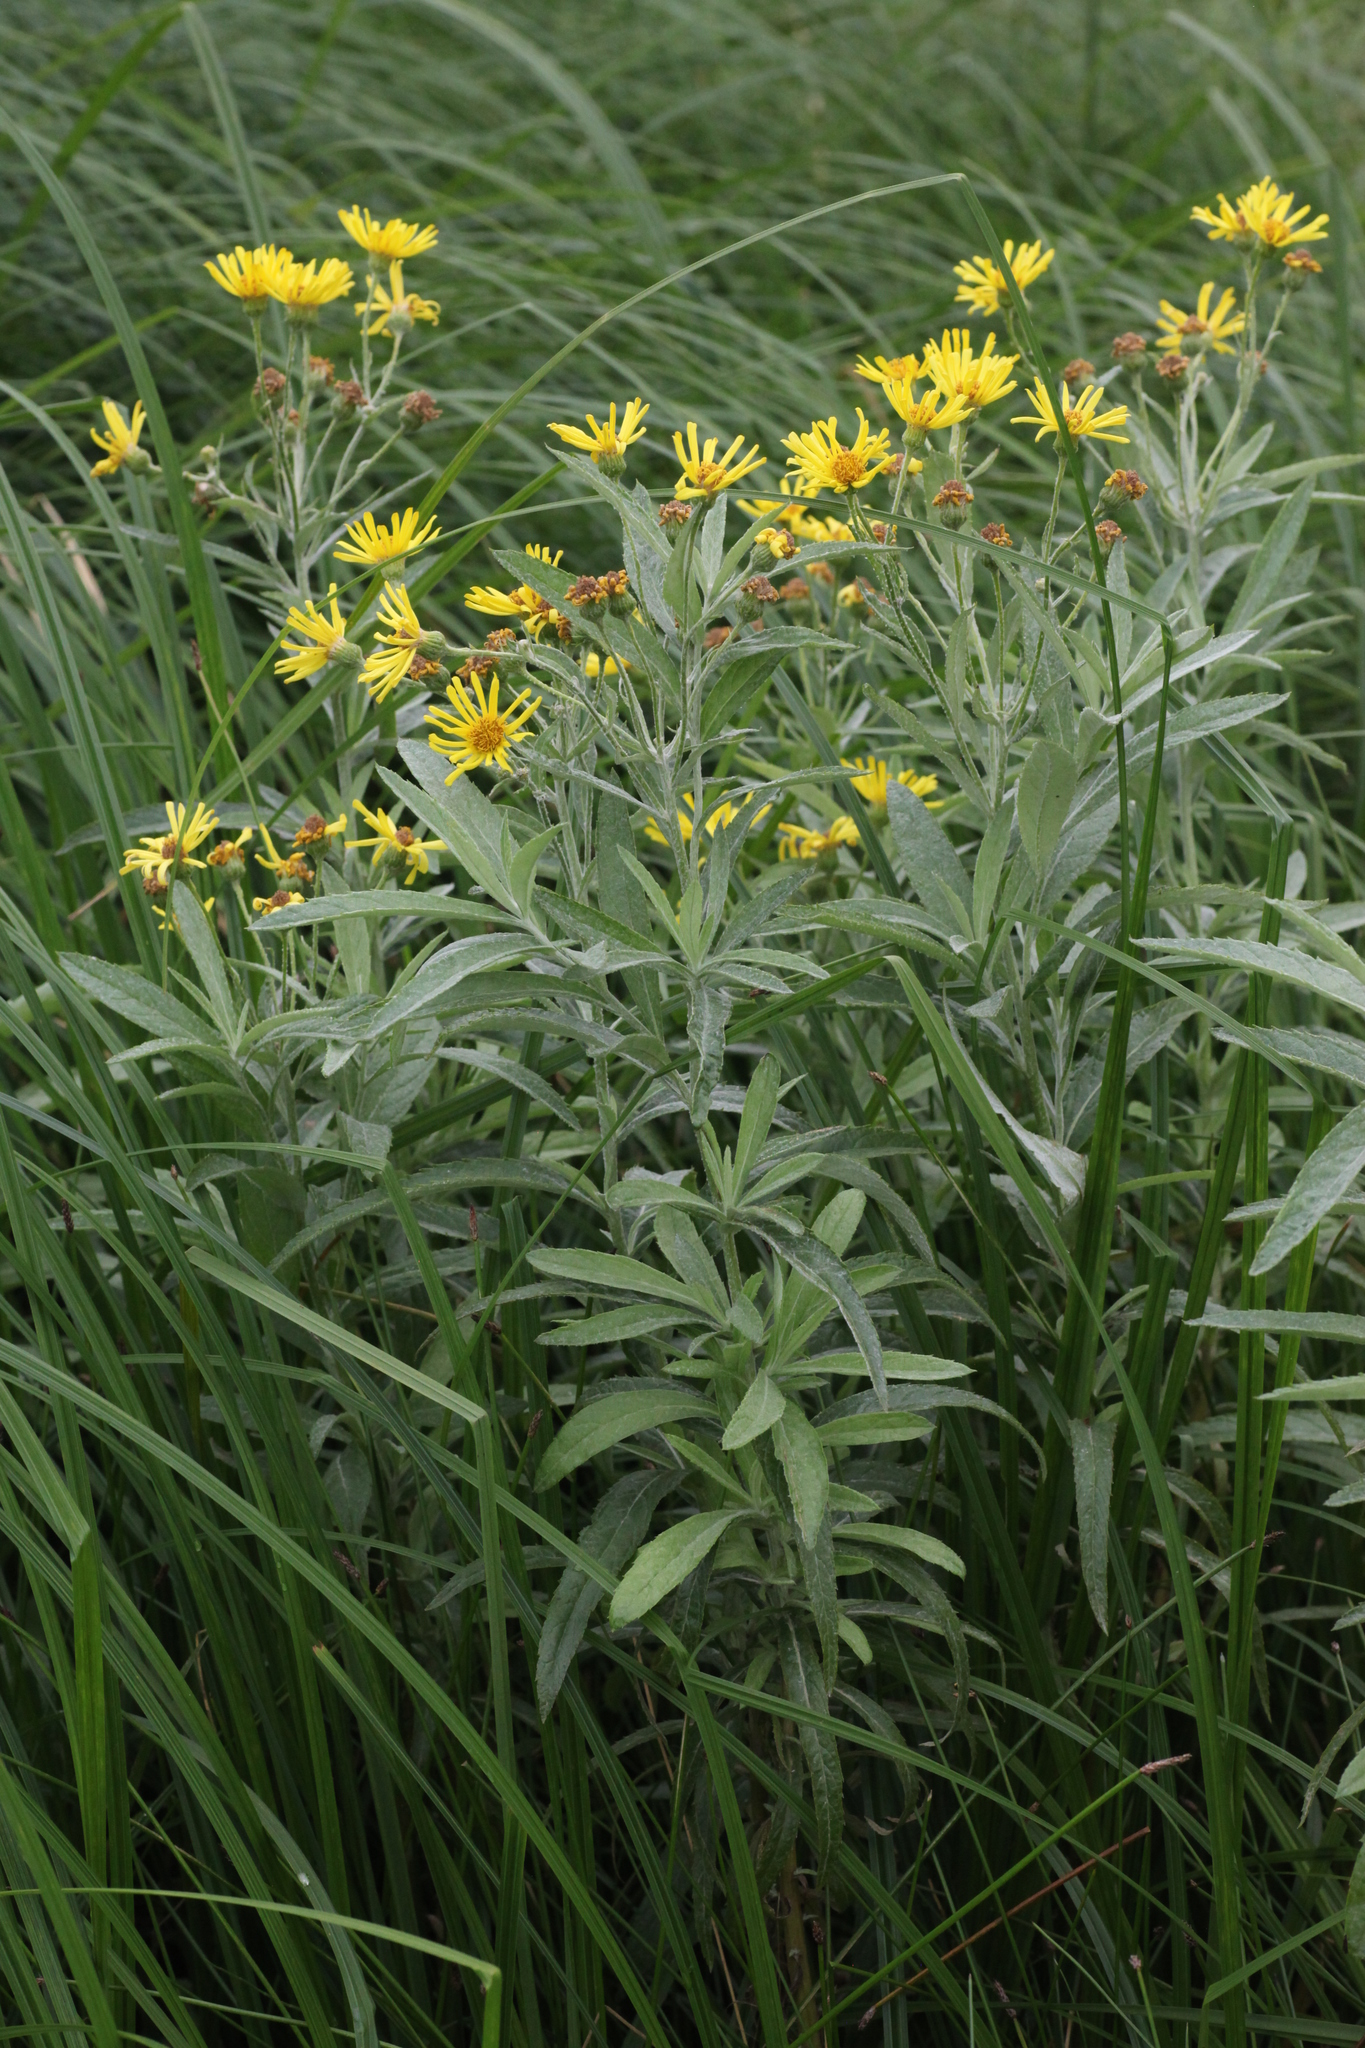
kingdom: Plantae
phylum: Tracheophyta
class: Magnoliopsida
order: Asterales
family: Asteraceae
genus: Jacobaea
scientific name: Jacobaea paludosa
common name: Fen ragwort
